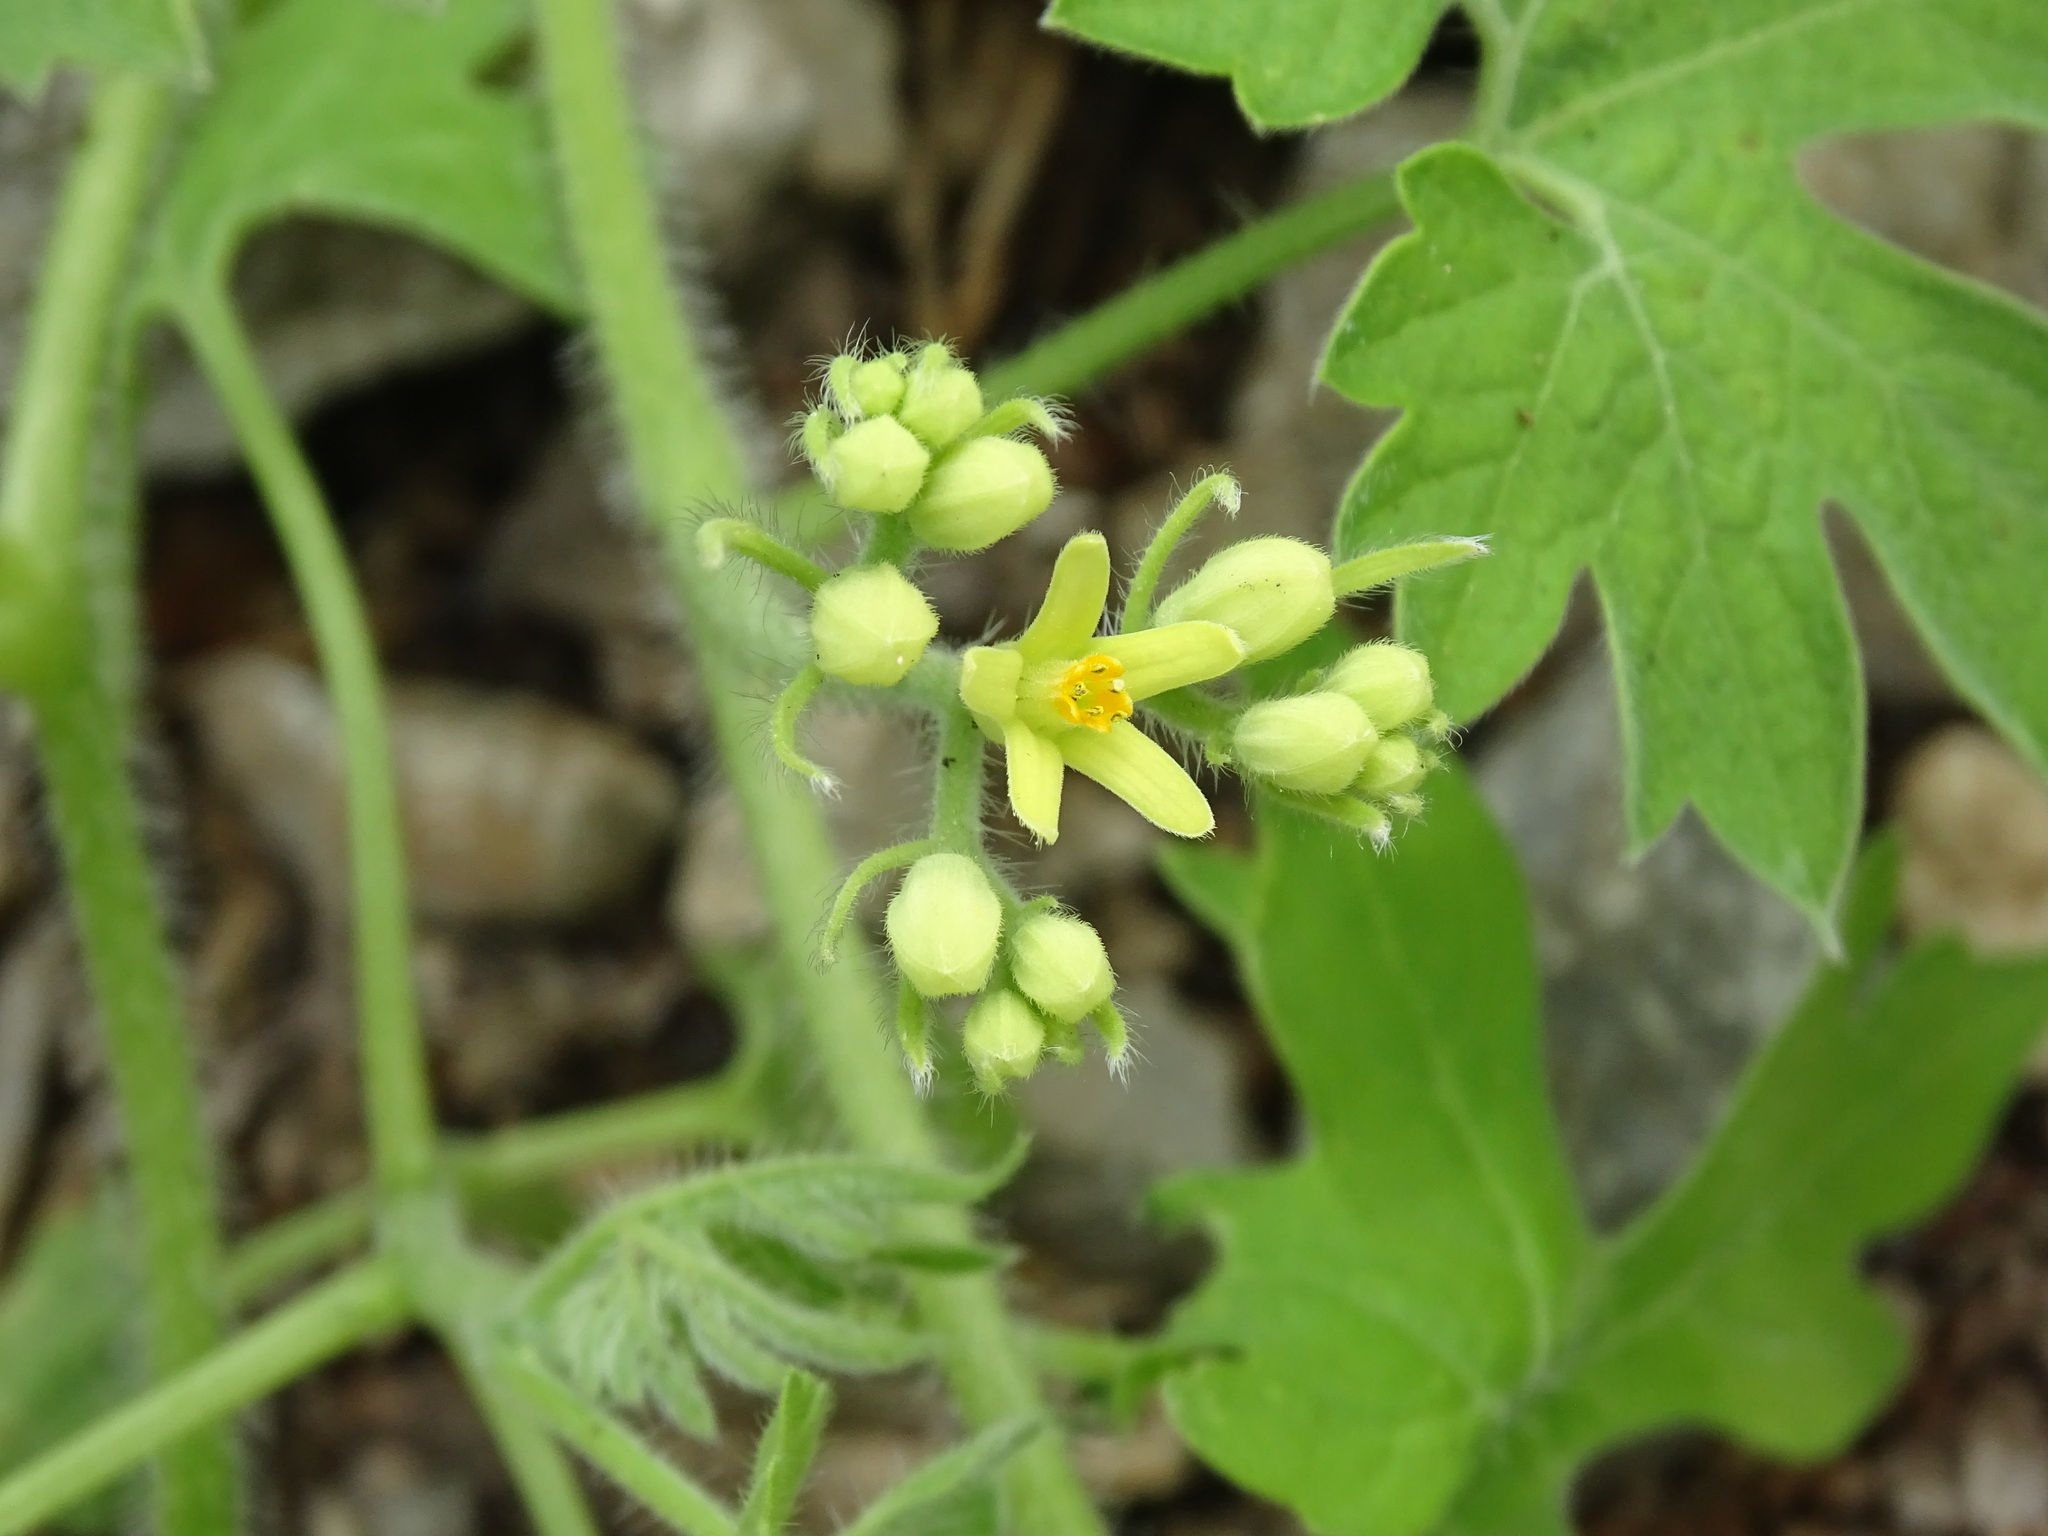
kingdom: Plantae
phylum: Tracheophyta
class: Magnoliopsida
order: Cornales
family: Loasaceae
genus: Gronovia
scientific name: Gronovia scandens
